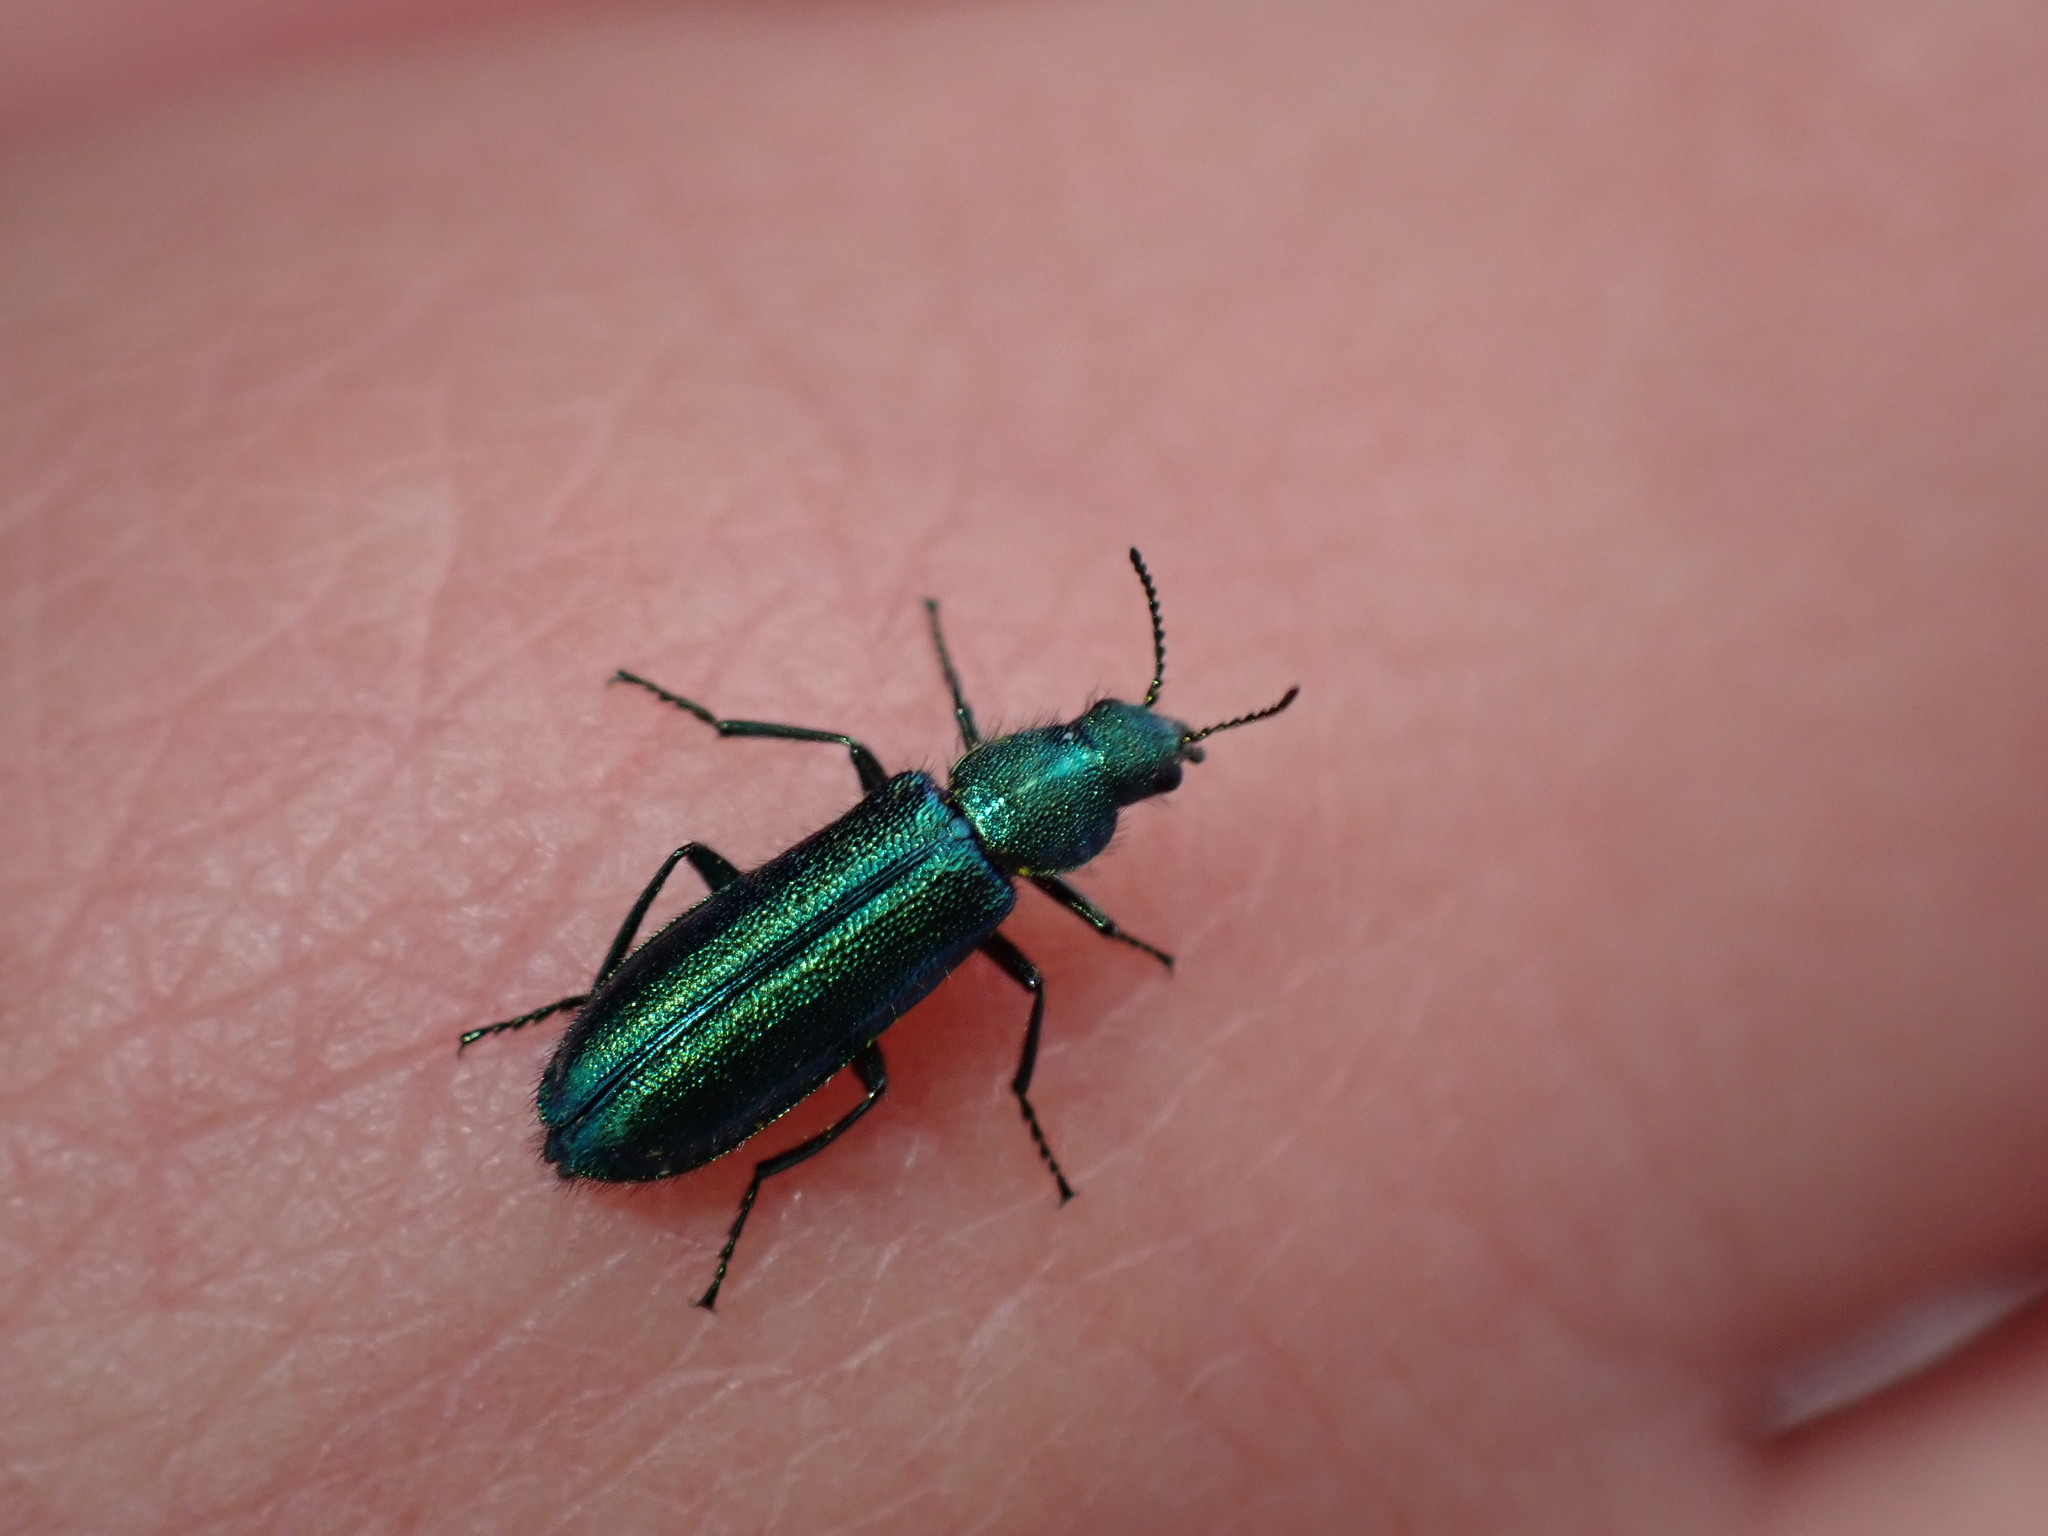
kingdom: Animalia
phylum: Arthropoda
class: Insecta
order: Coleoptera
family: Dasytidae
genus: Psilothrix
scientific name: Psilothrix viridicoerulea
